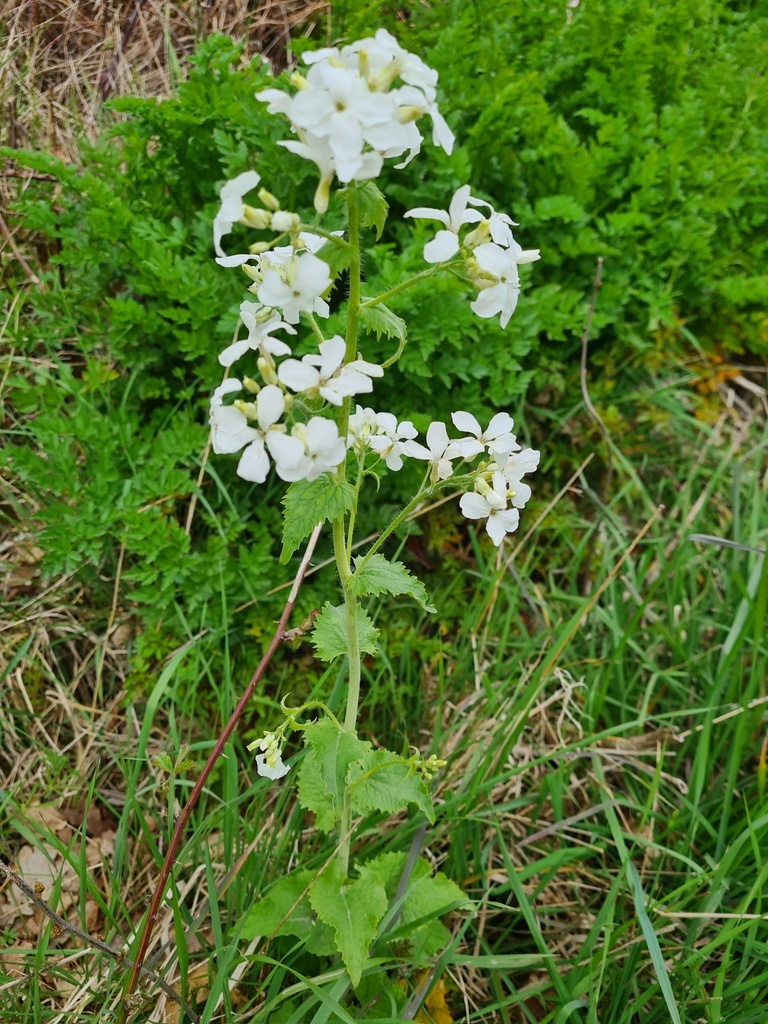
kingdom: Plantae
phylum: Tracheophyta
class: Magnoliopsida
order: Brassicales
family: Brassicaceae
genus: Lunaria
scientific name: Lunaria annua
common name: Honesty
